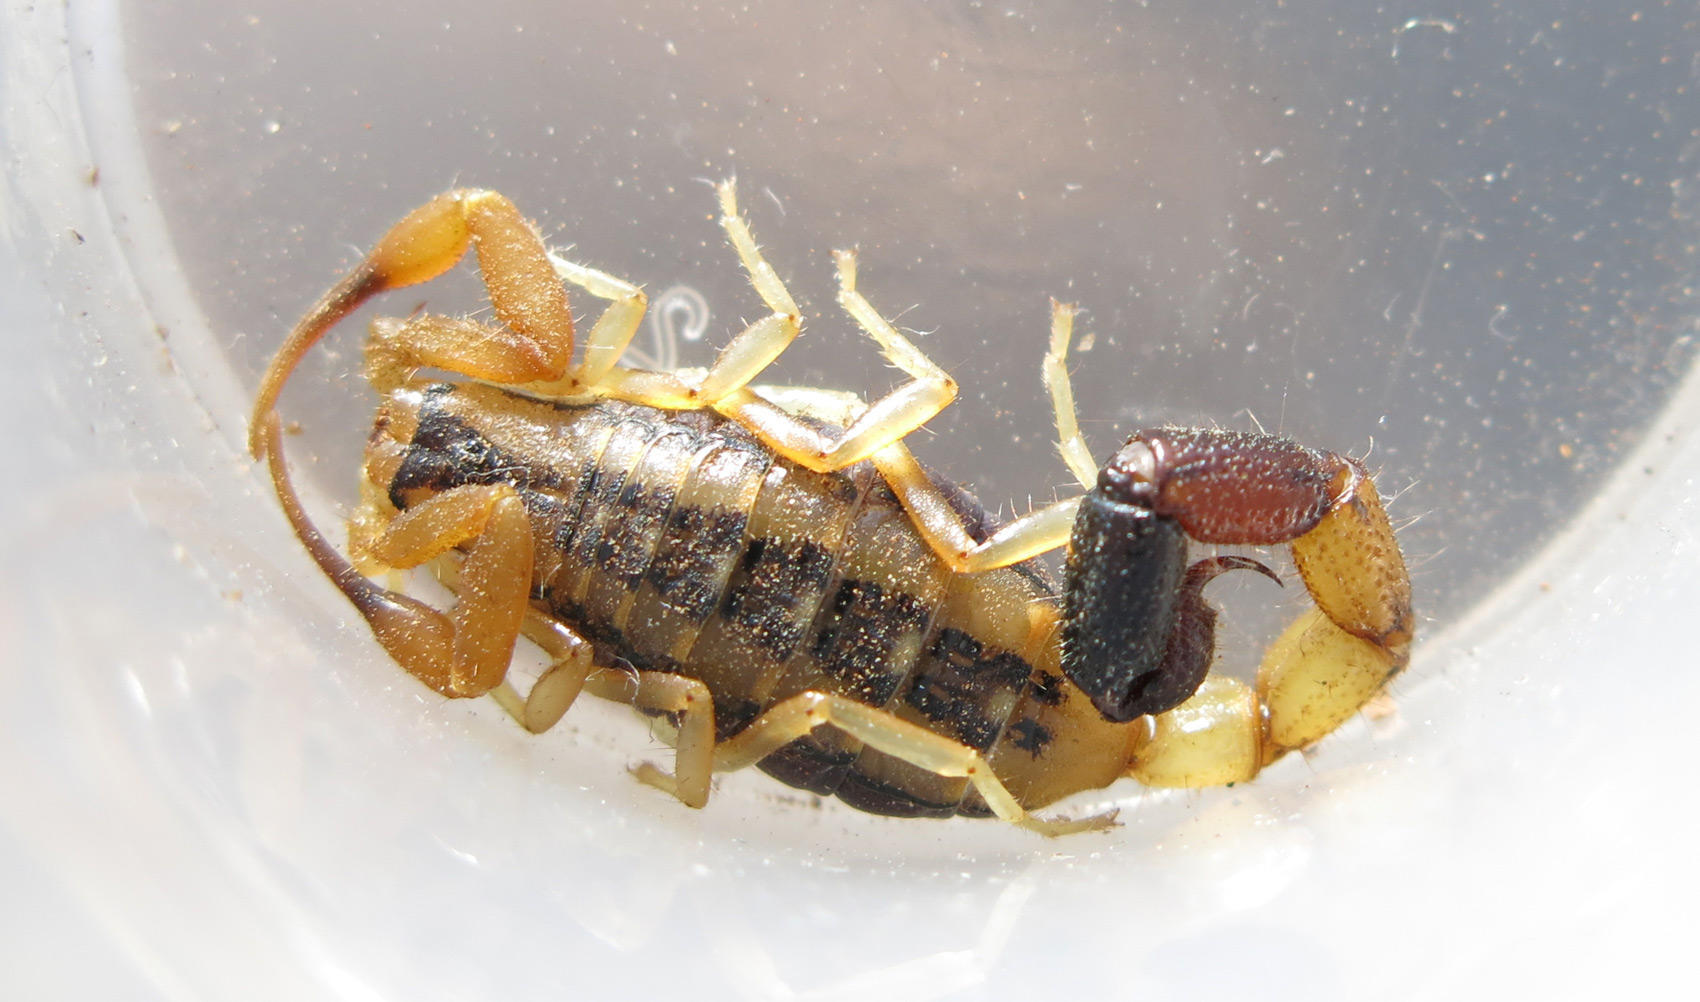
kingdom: Animalia
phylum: Arthropoda
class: Arachnida
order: Scorpiones
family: Buthidae
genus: Uroplectes
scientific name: Uroplectes chubbi
